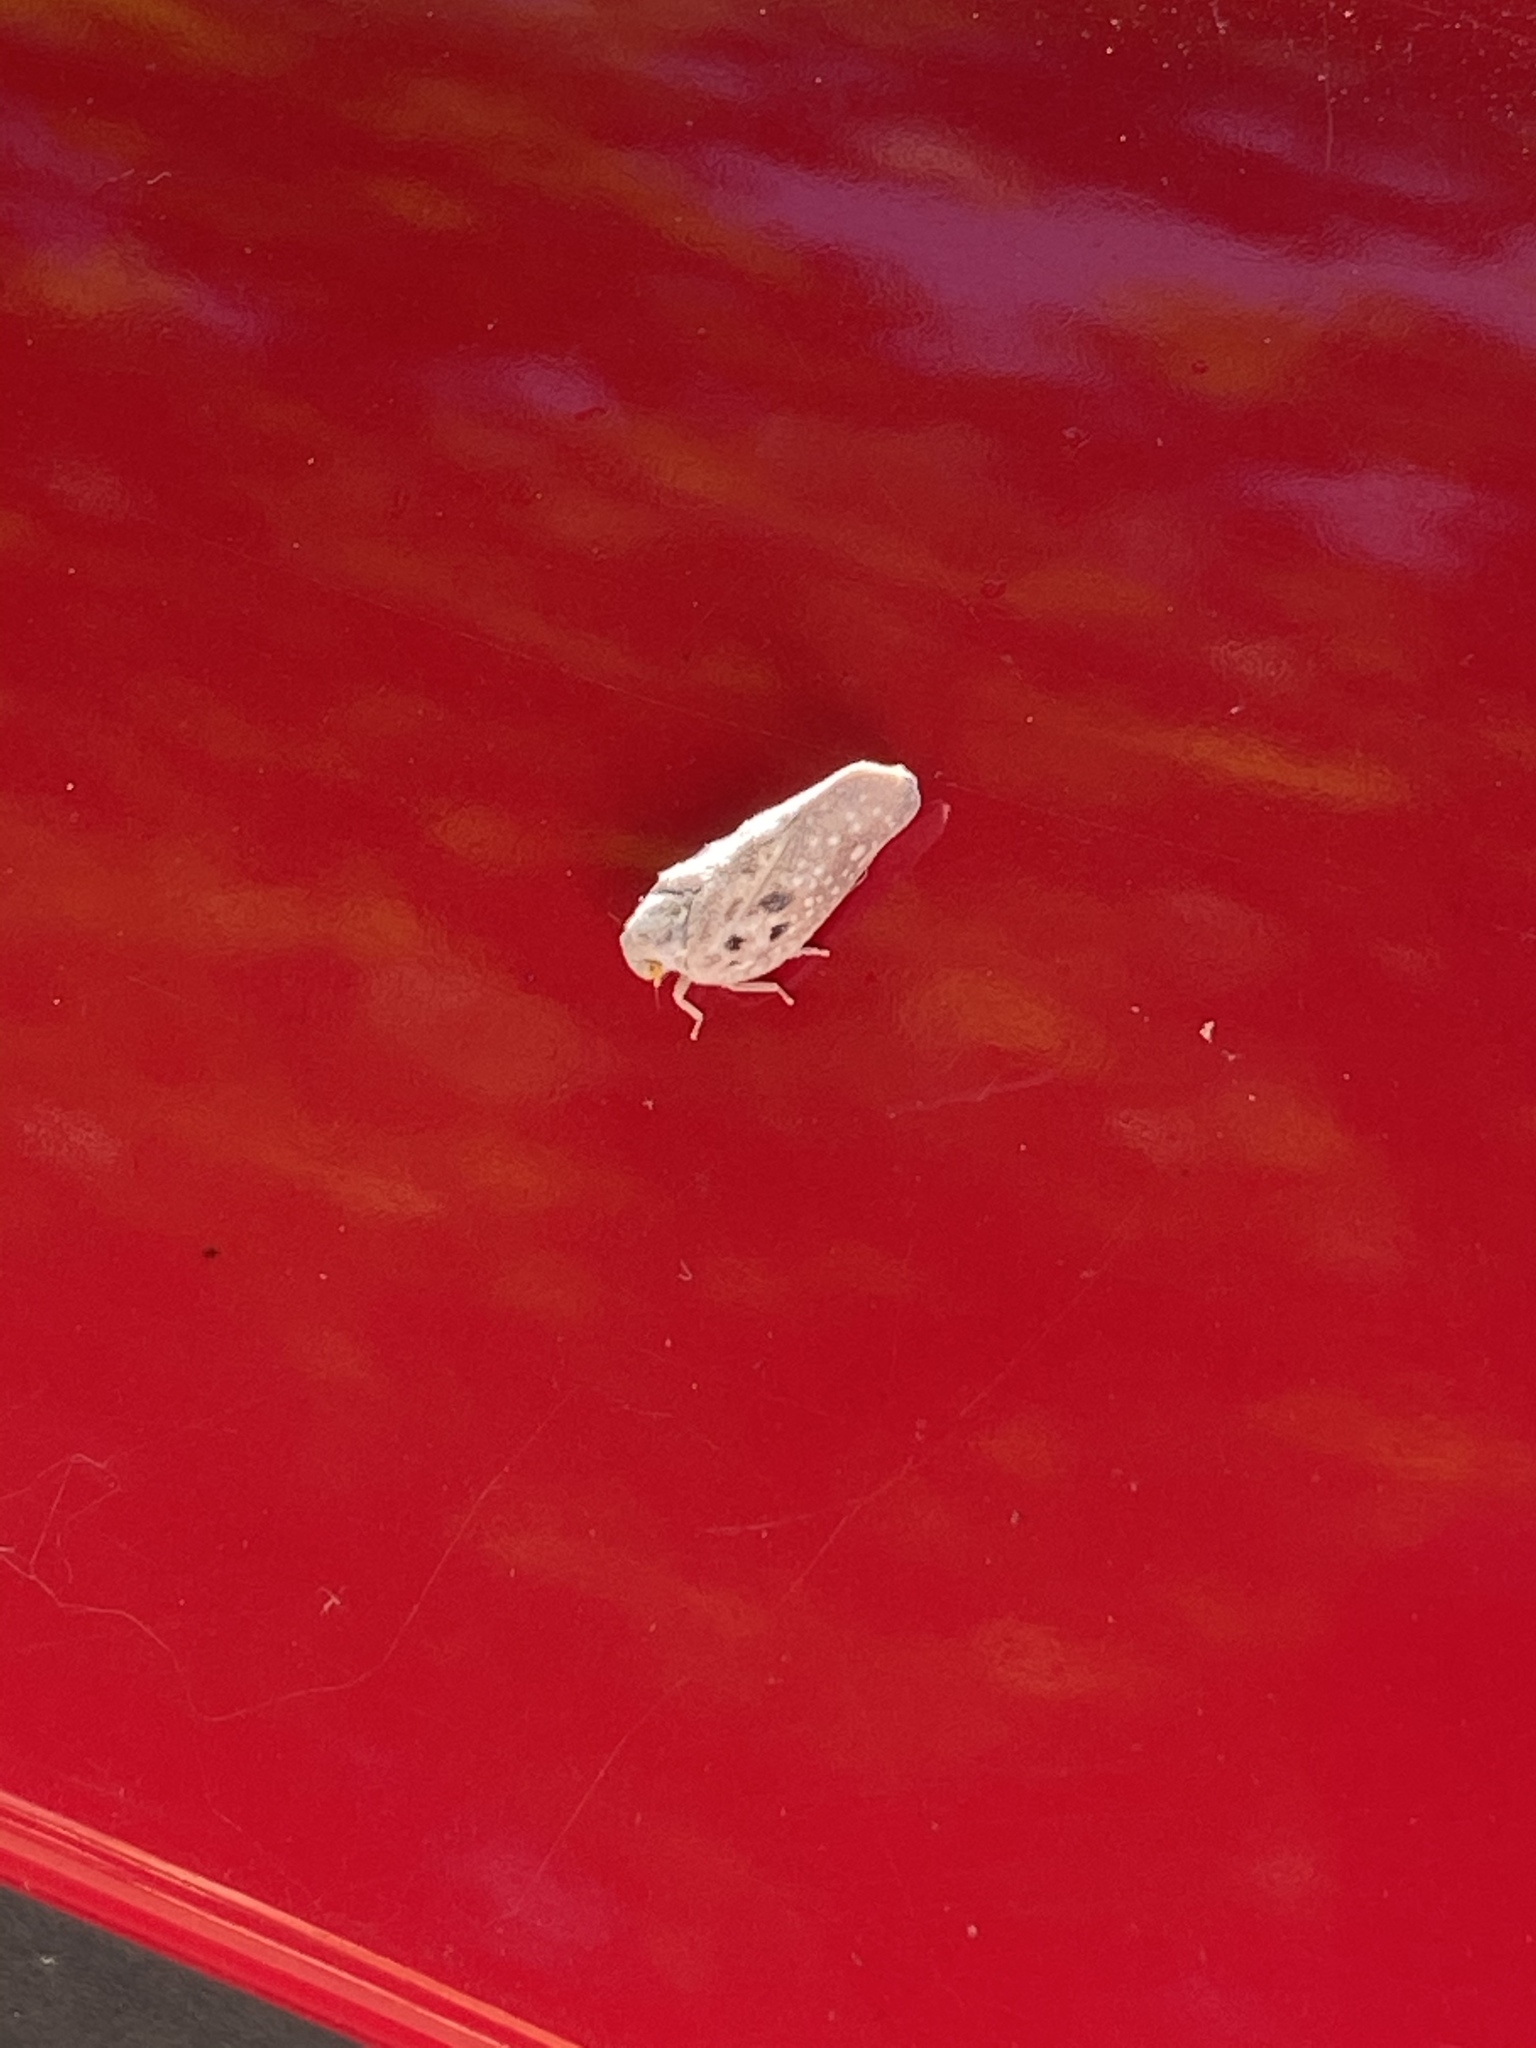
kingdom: Animalia
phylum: Arthropoda
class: Insecta
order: Hemiptera
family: Flatidae
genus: Metcalfa
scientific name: Metcalfa pruinosa
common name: Citrus flatid planthopper
